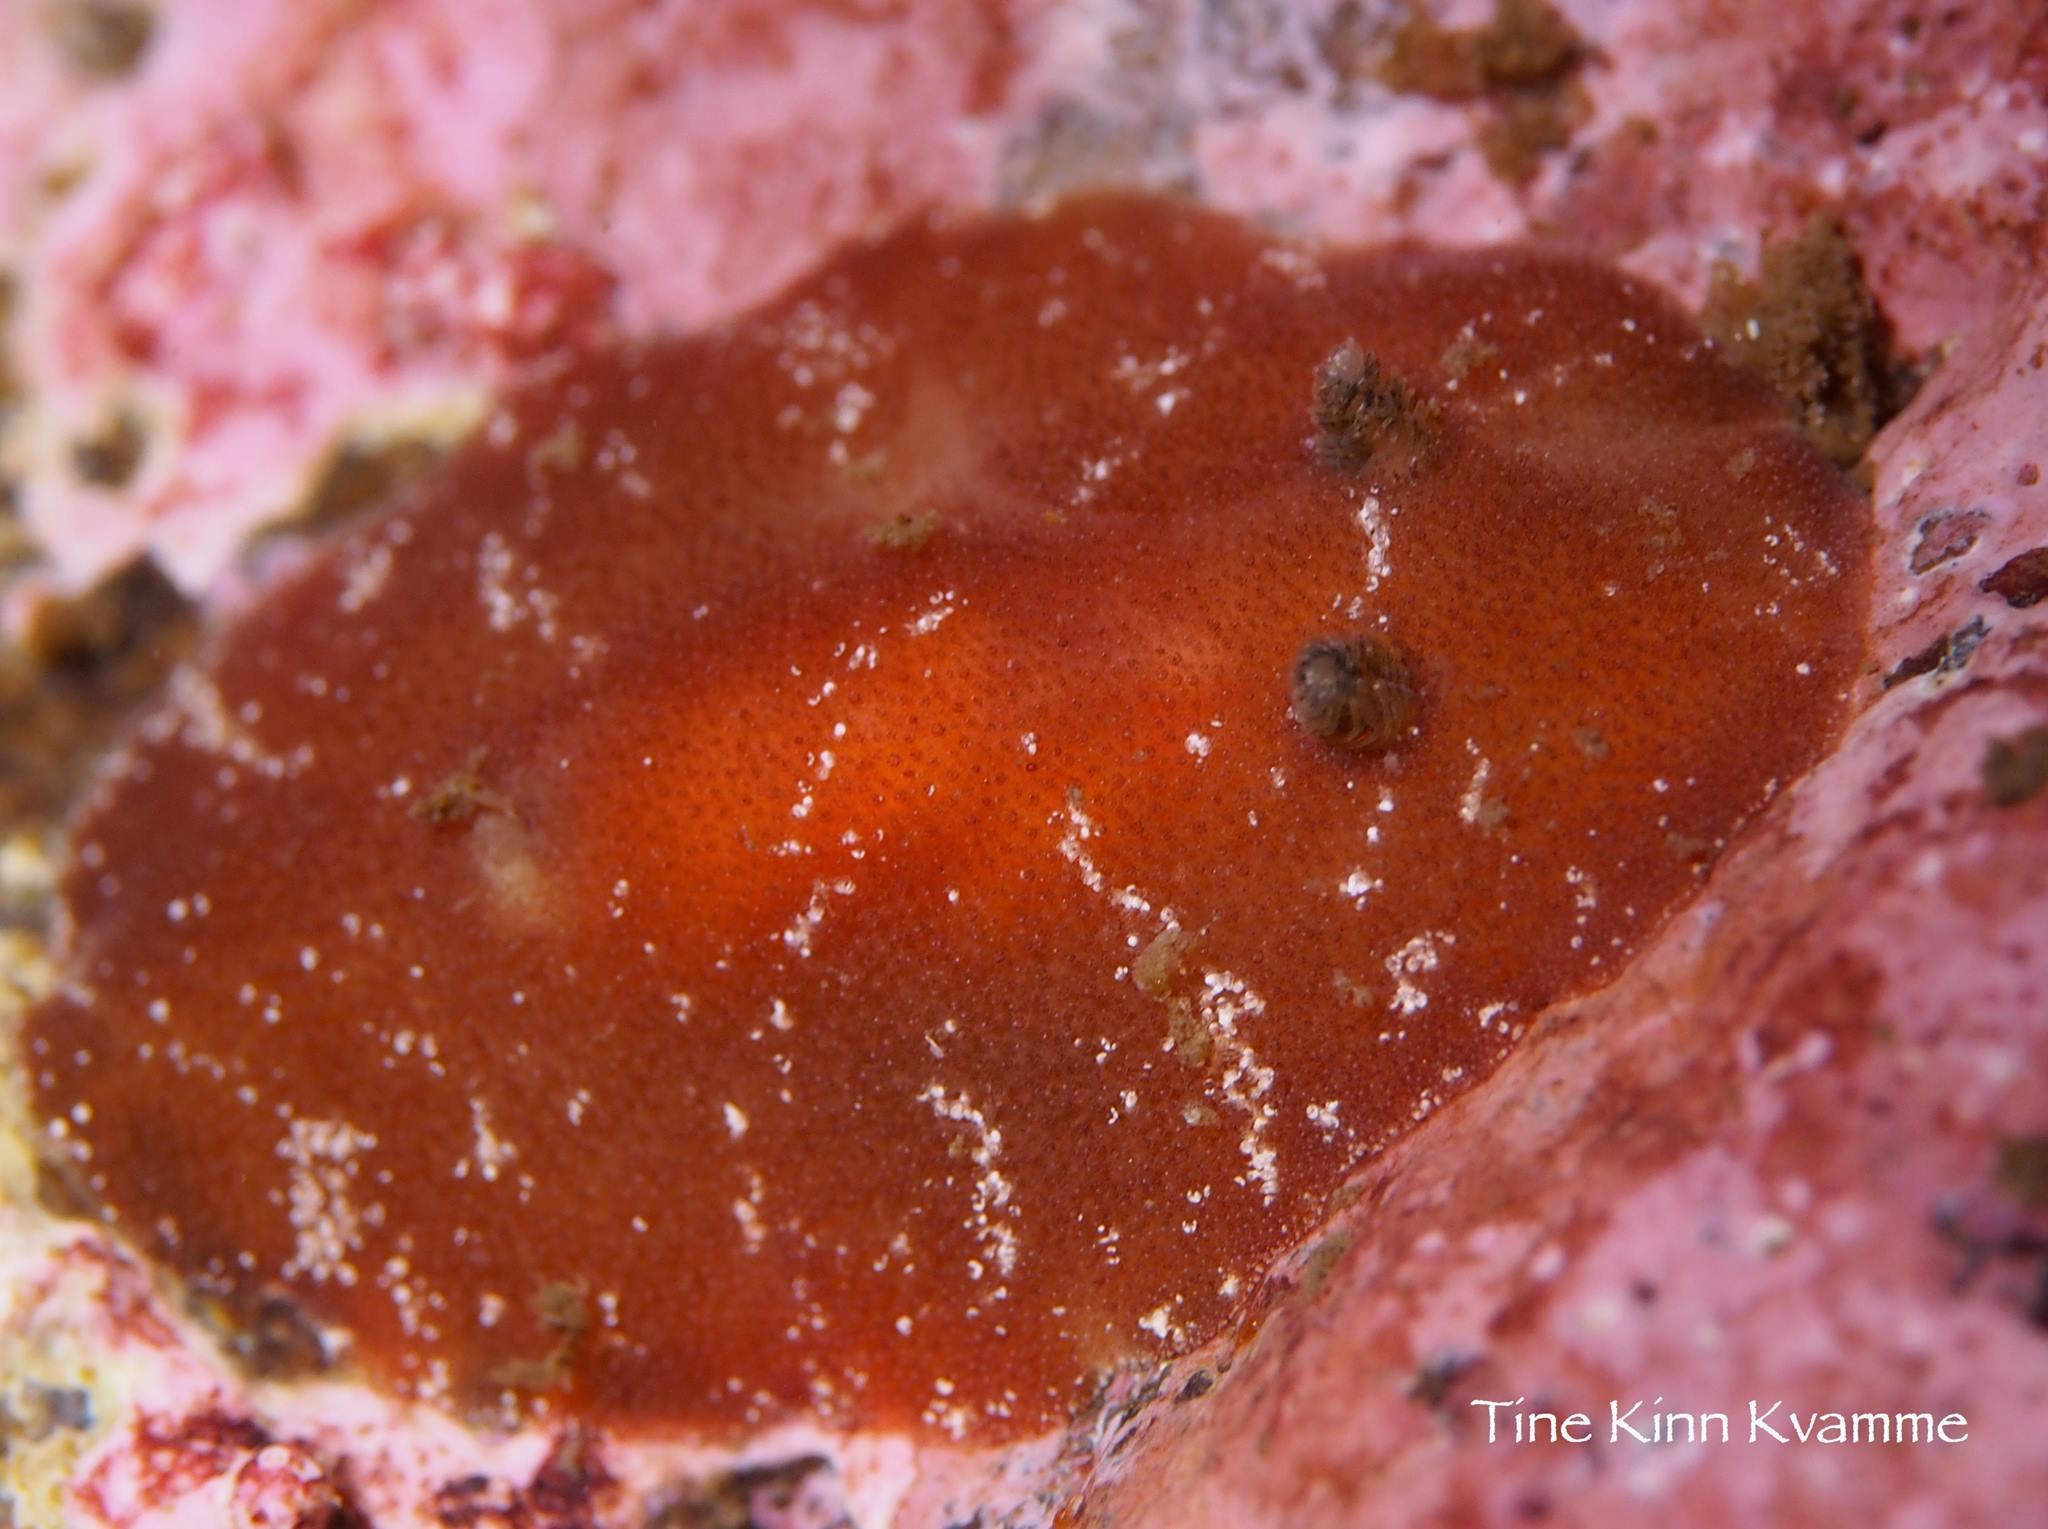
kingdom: Animalia
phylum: Mollusca
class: Gastropoda
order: Nudibranchia
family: Discodorididae
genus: Rostanga
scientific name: Rostanga rubra
